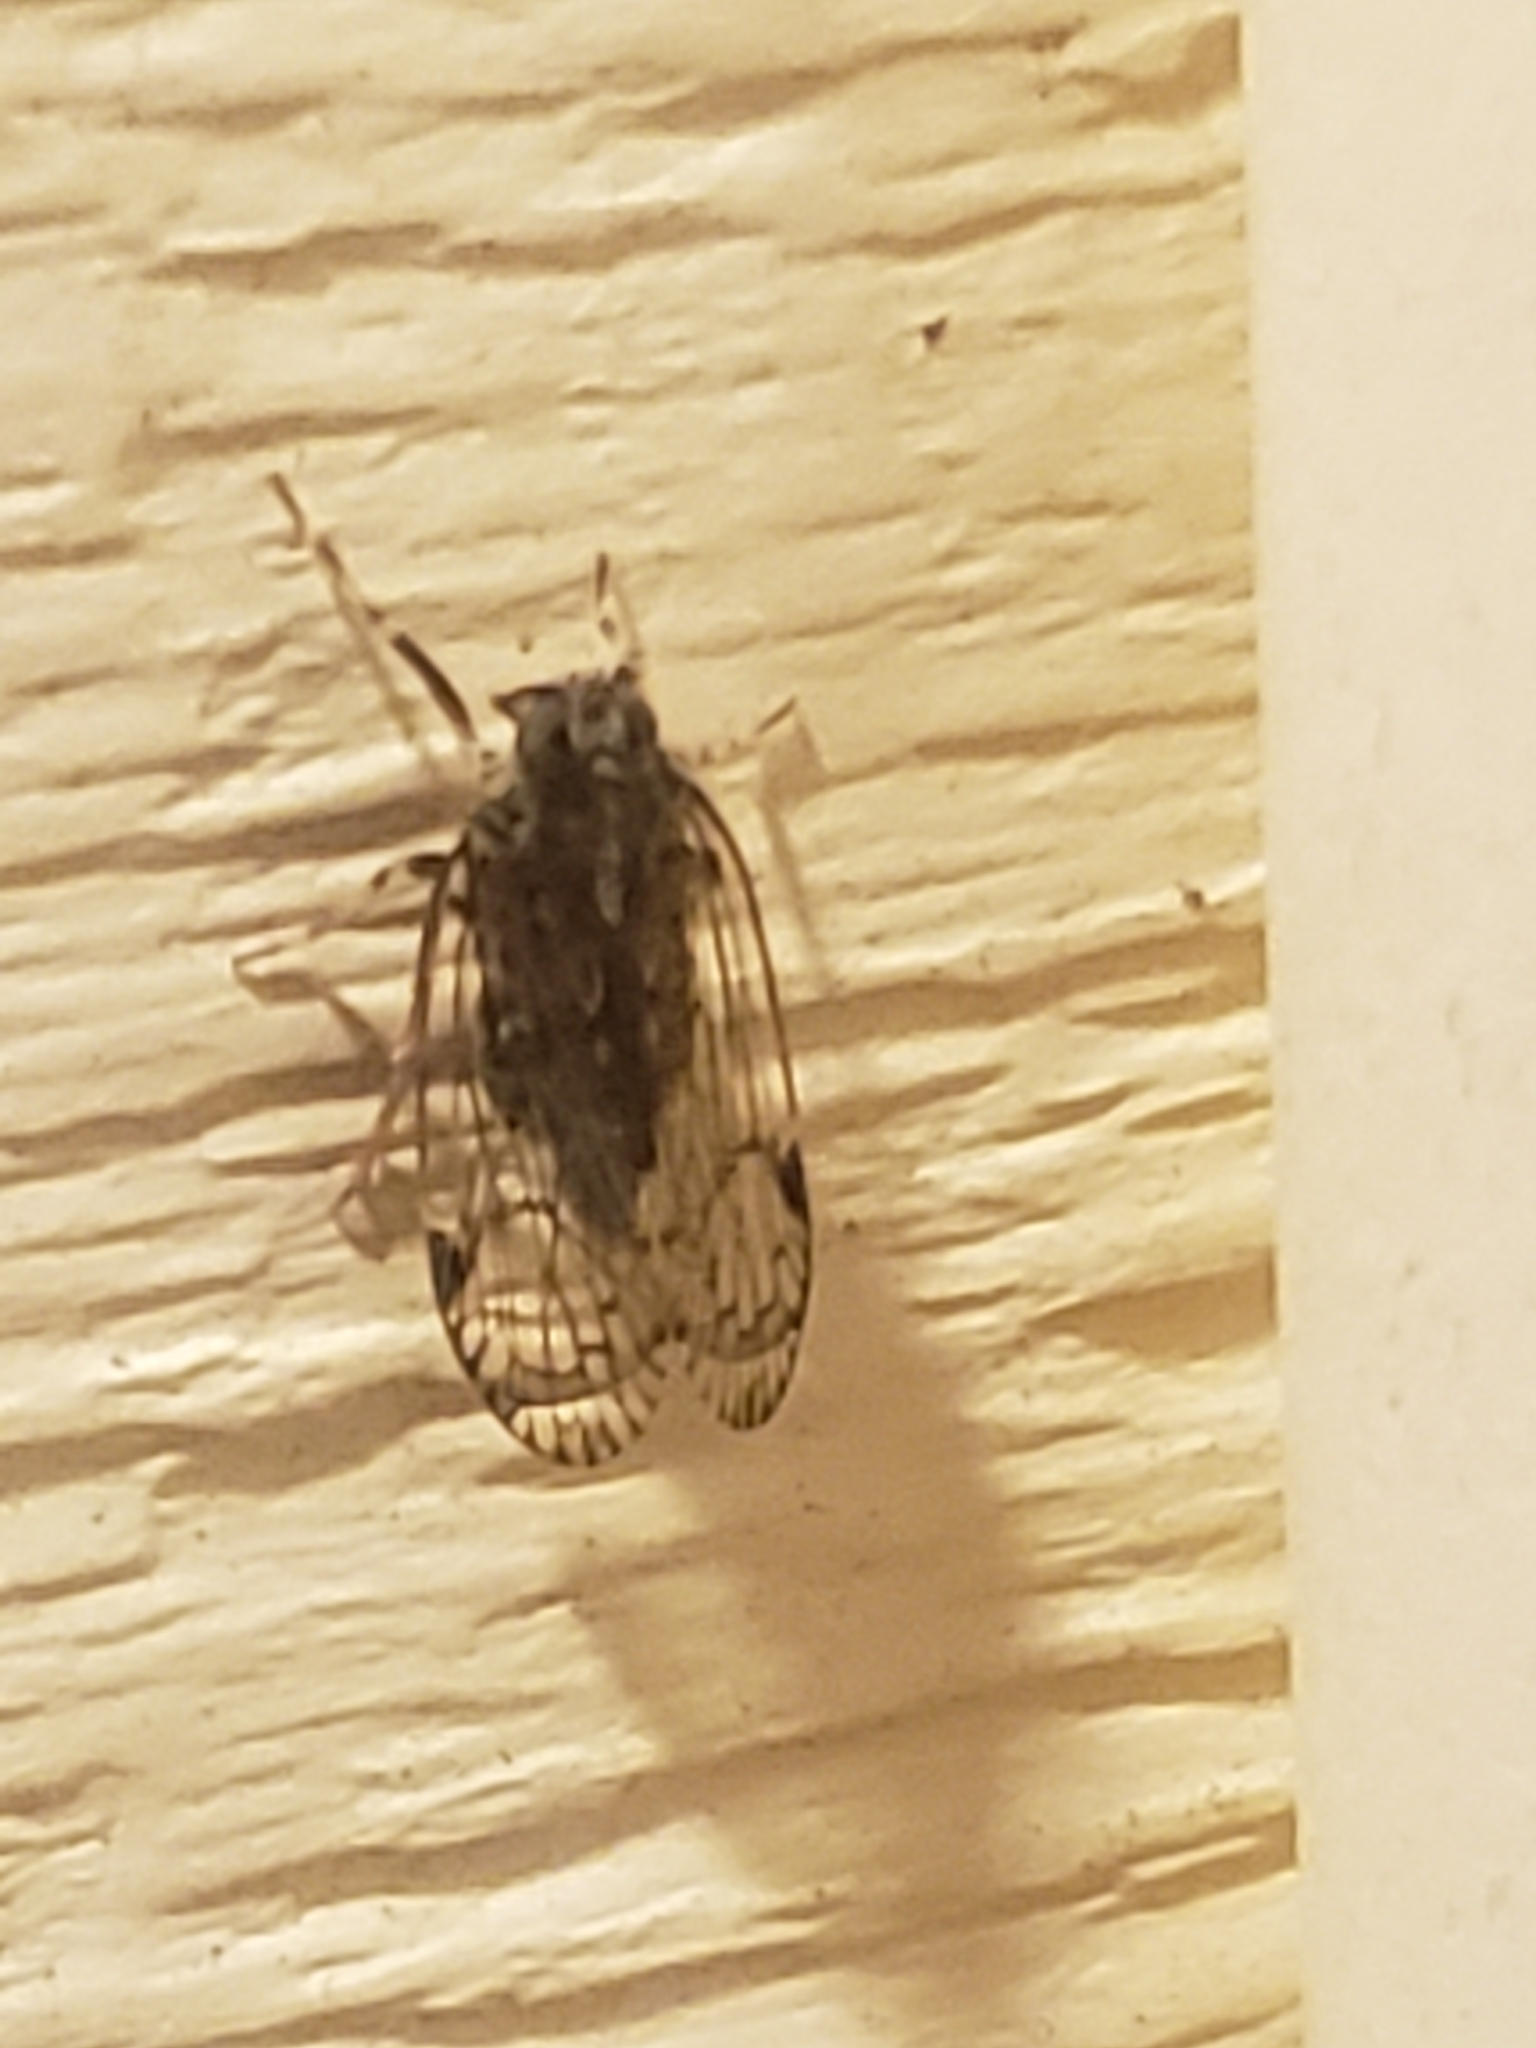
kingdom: Animalia
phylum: Arthropoda
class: Insecta
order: Hemiptera
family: Cixiidae
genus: Melanoliarus
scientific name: Melanoliarus placitus
